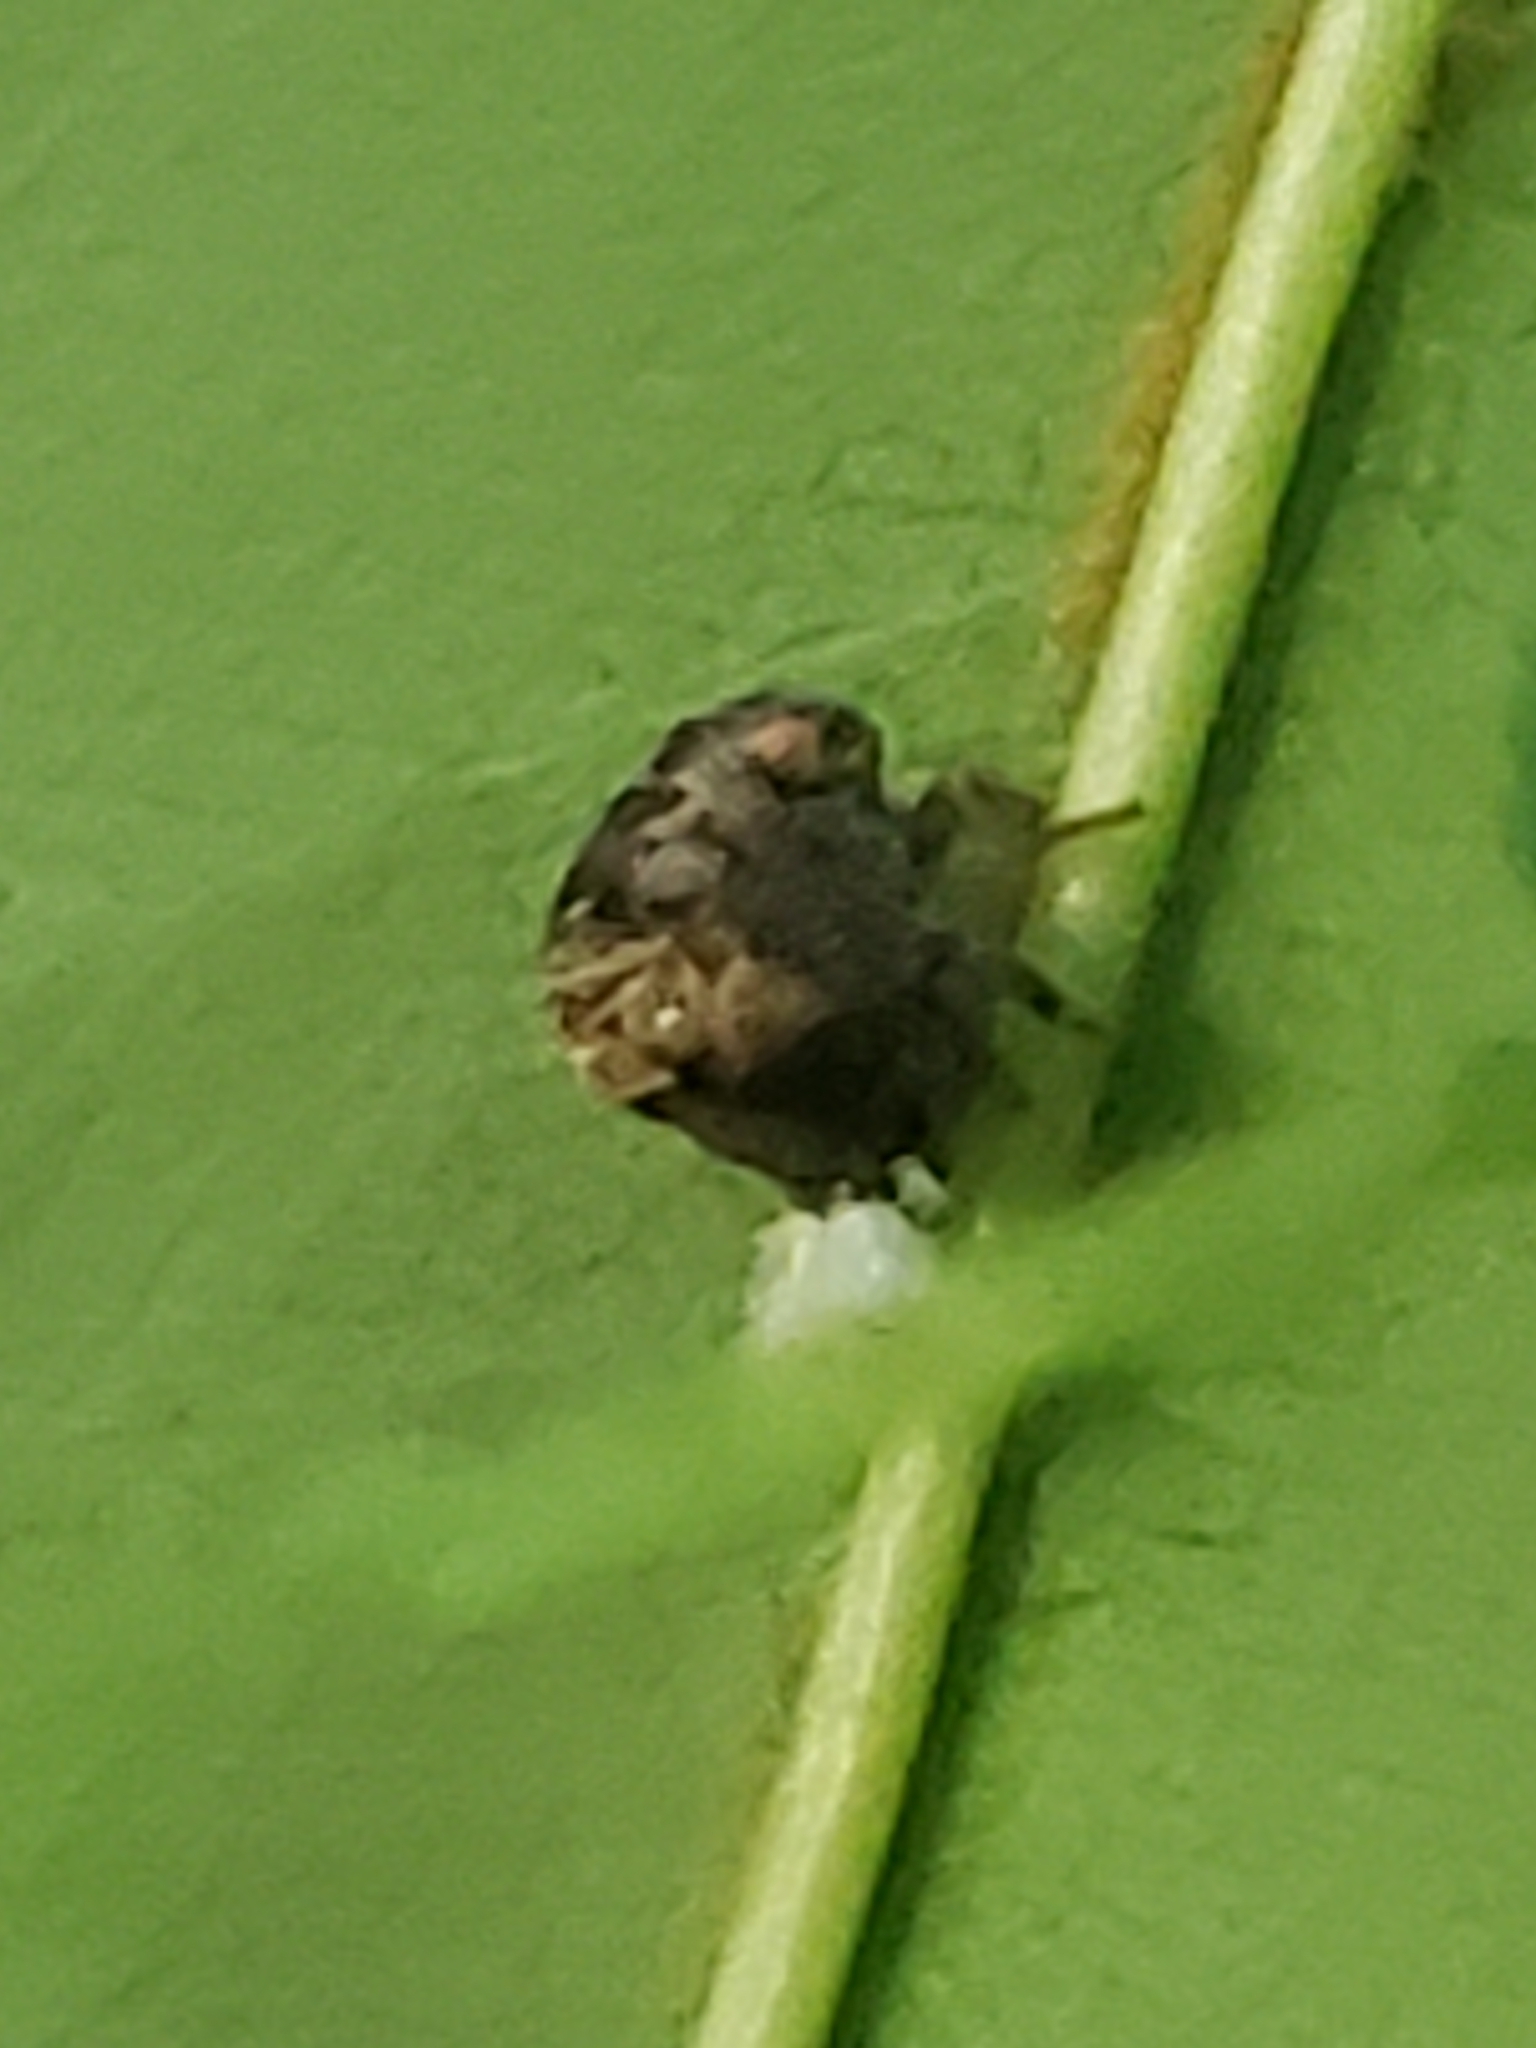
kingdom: Animalia
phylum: Arthropoda
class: Insecta
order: Hemiptera
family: Acanaloniidae
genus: Acanalonia
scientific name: Acanalonia bivittata
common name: Two-striped planthopper
